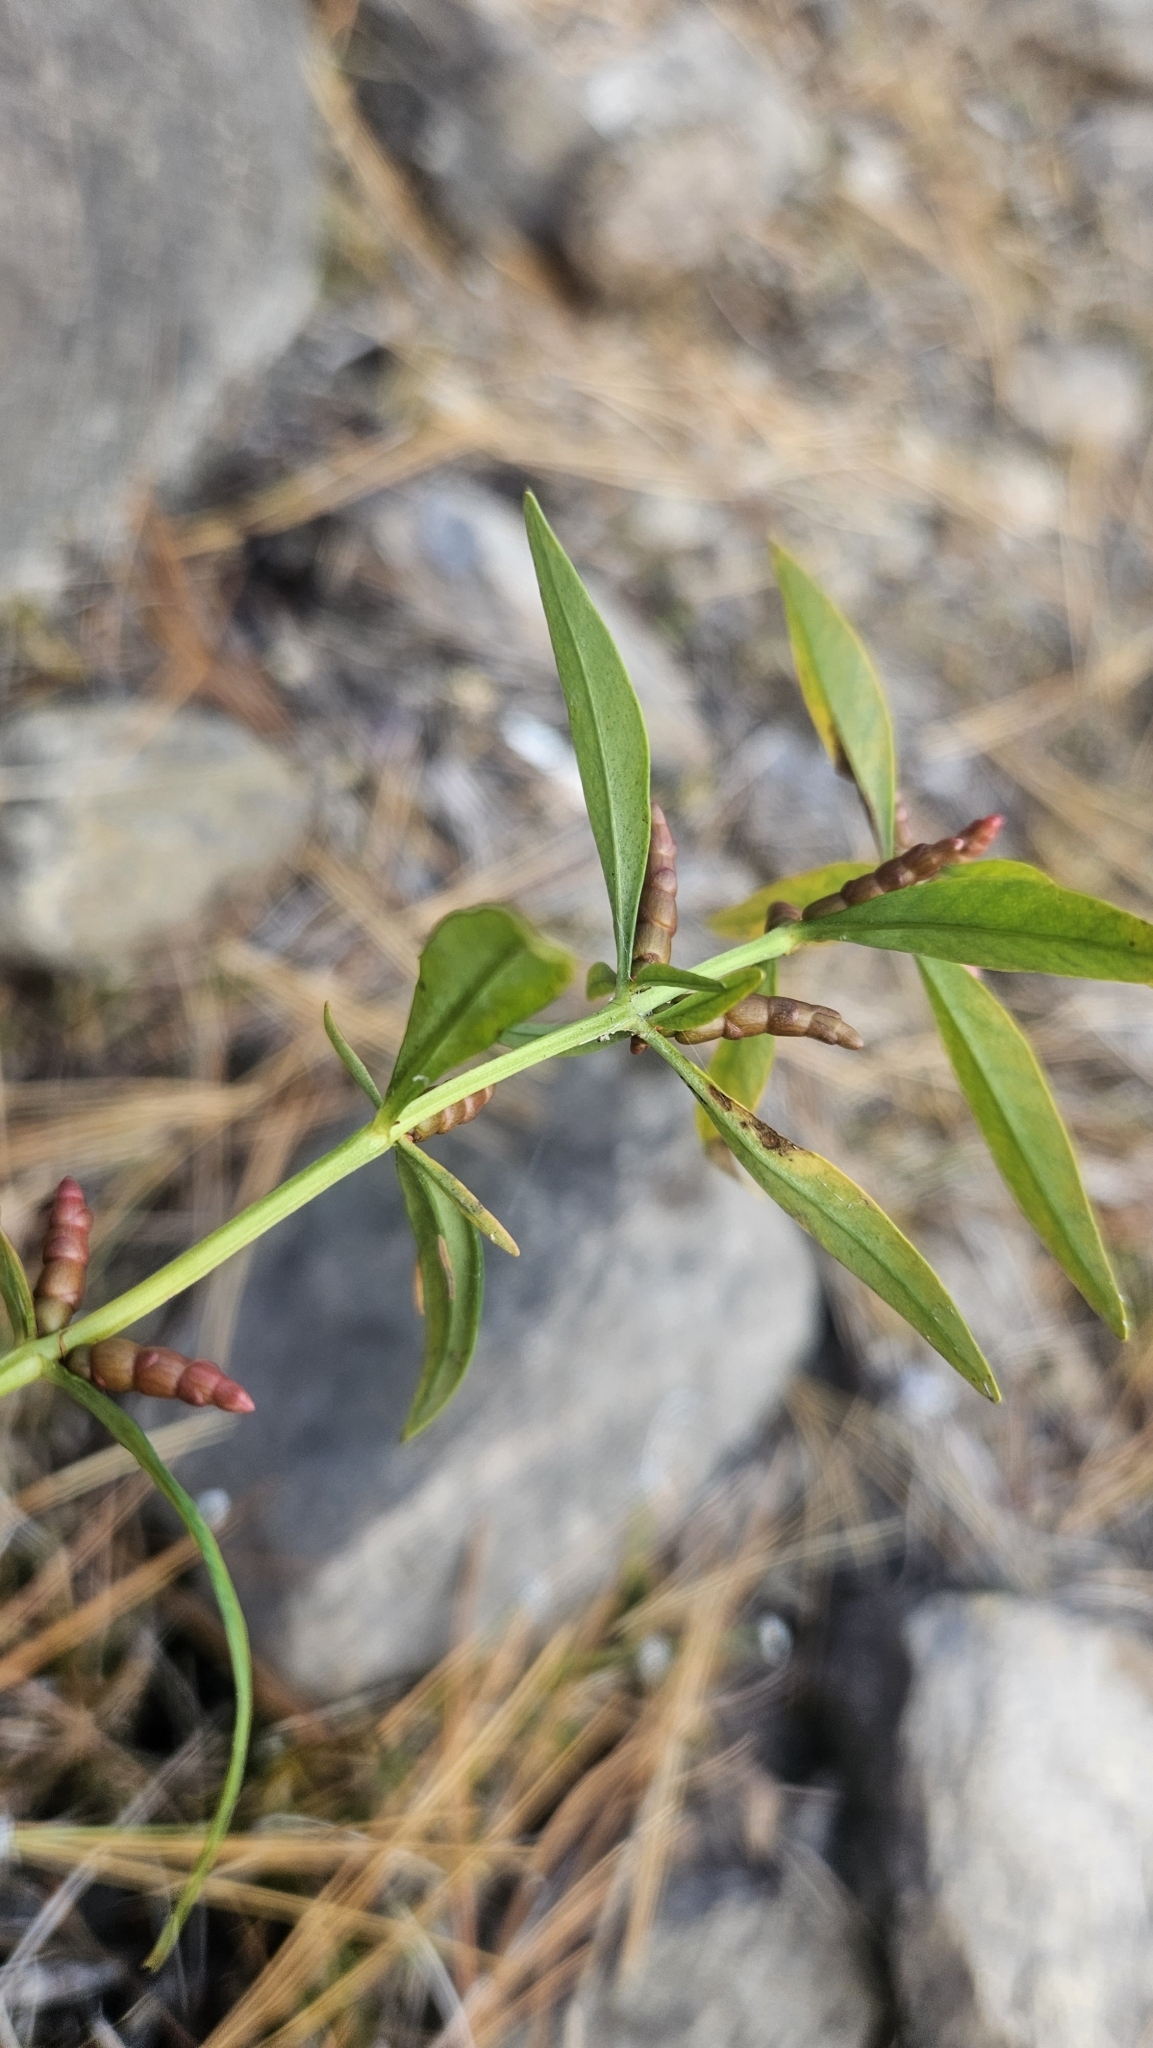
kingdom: Plantae
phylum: Tracheophyta
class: Magnoliopsida
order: Ericales
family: Primulaceae
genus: Lysimachia
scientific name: Lysimachia terrestris
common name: Lake loosestrife
